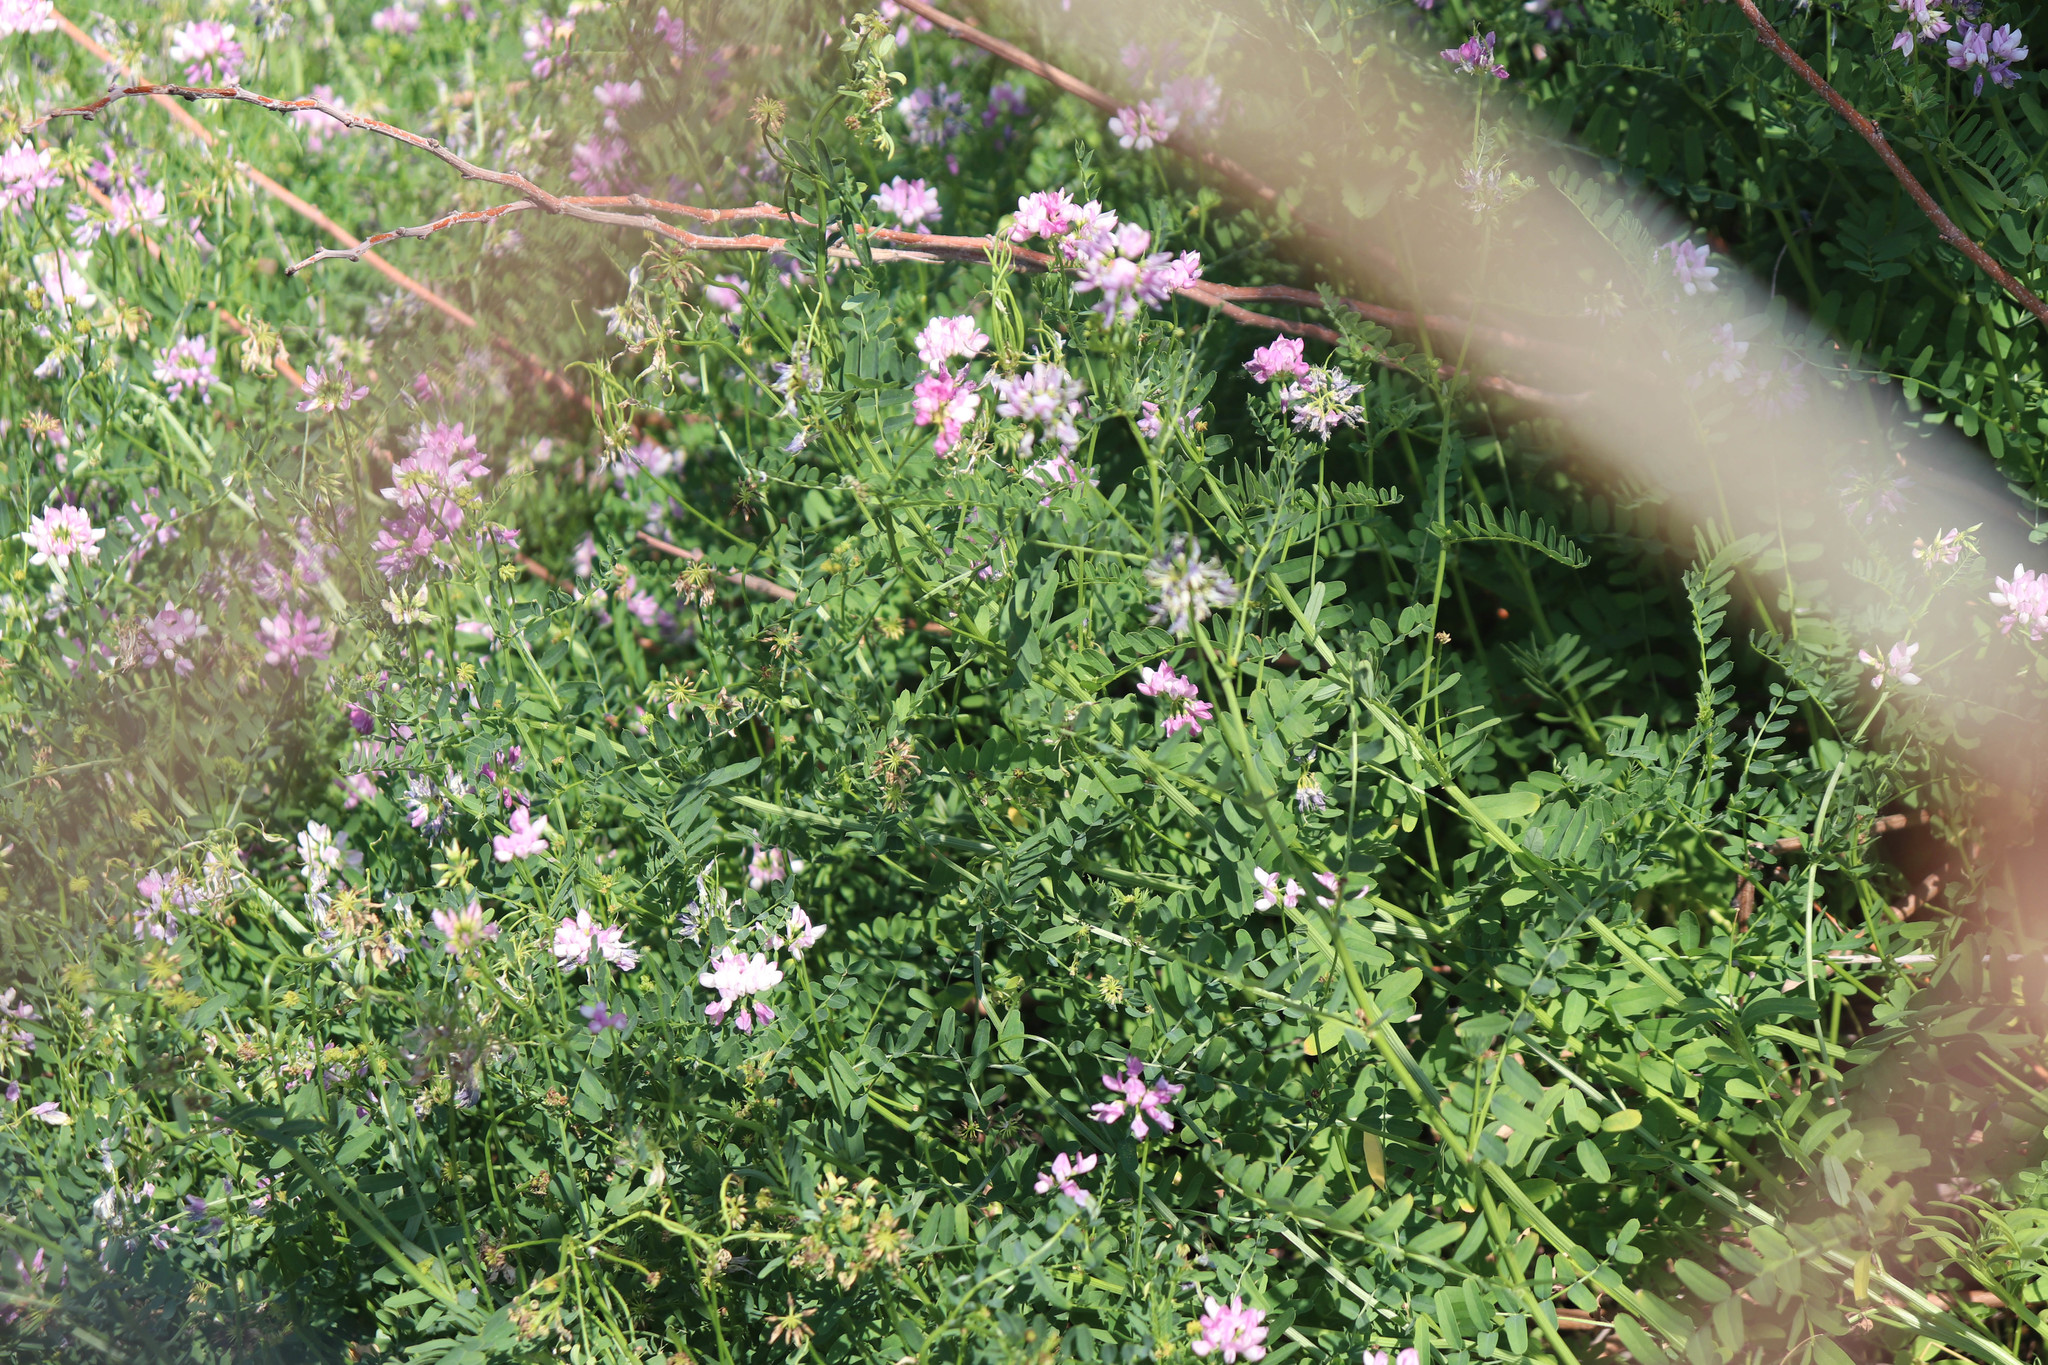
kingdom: Plantae
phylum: Tracheophyta
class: Magnoliopsida
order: Fabales
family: Fabaceae
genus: Coronilla
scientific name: Coronilla varia
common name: Crownvetch
